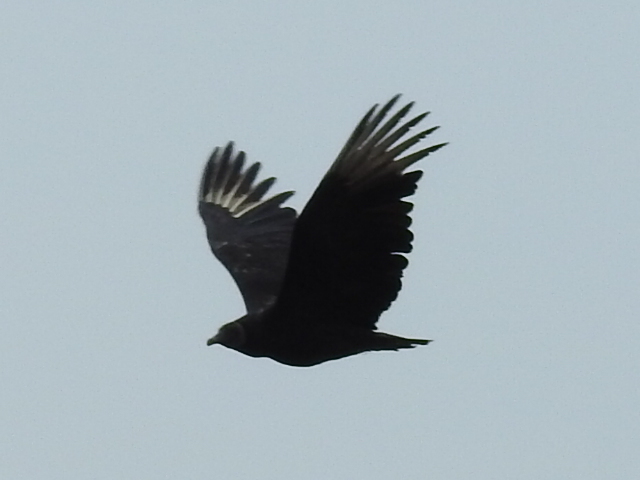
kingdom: Animalia
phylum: Chordata
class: Aves
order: Accipitriformes
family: Cathartidae
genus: Coragyps
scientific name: Coragyps atratus
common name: Black vulture
